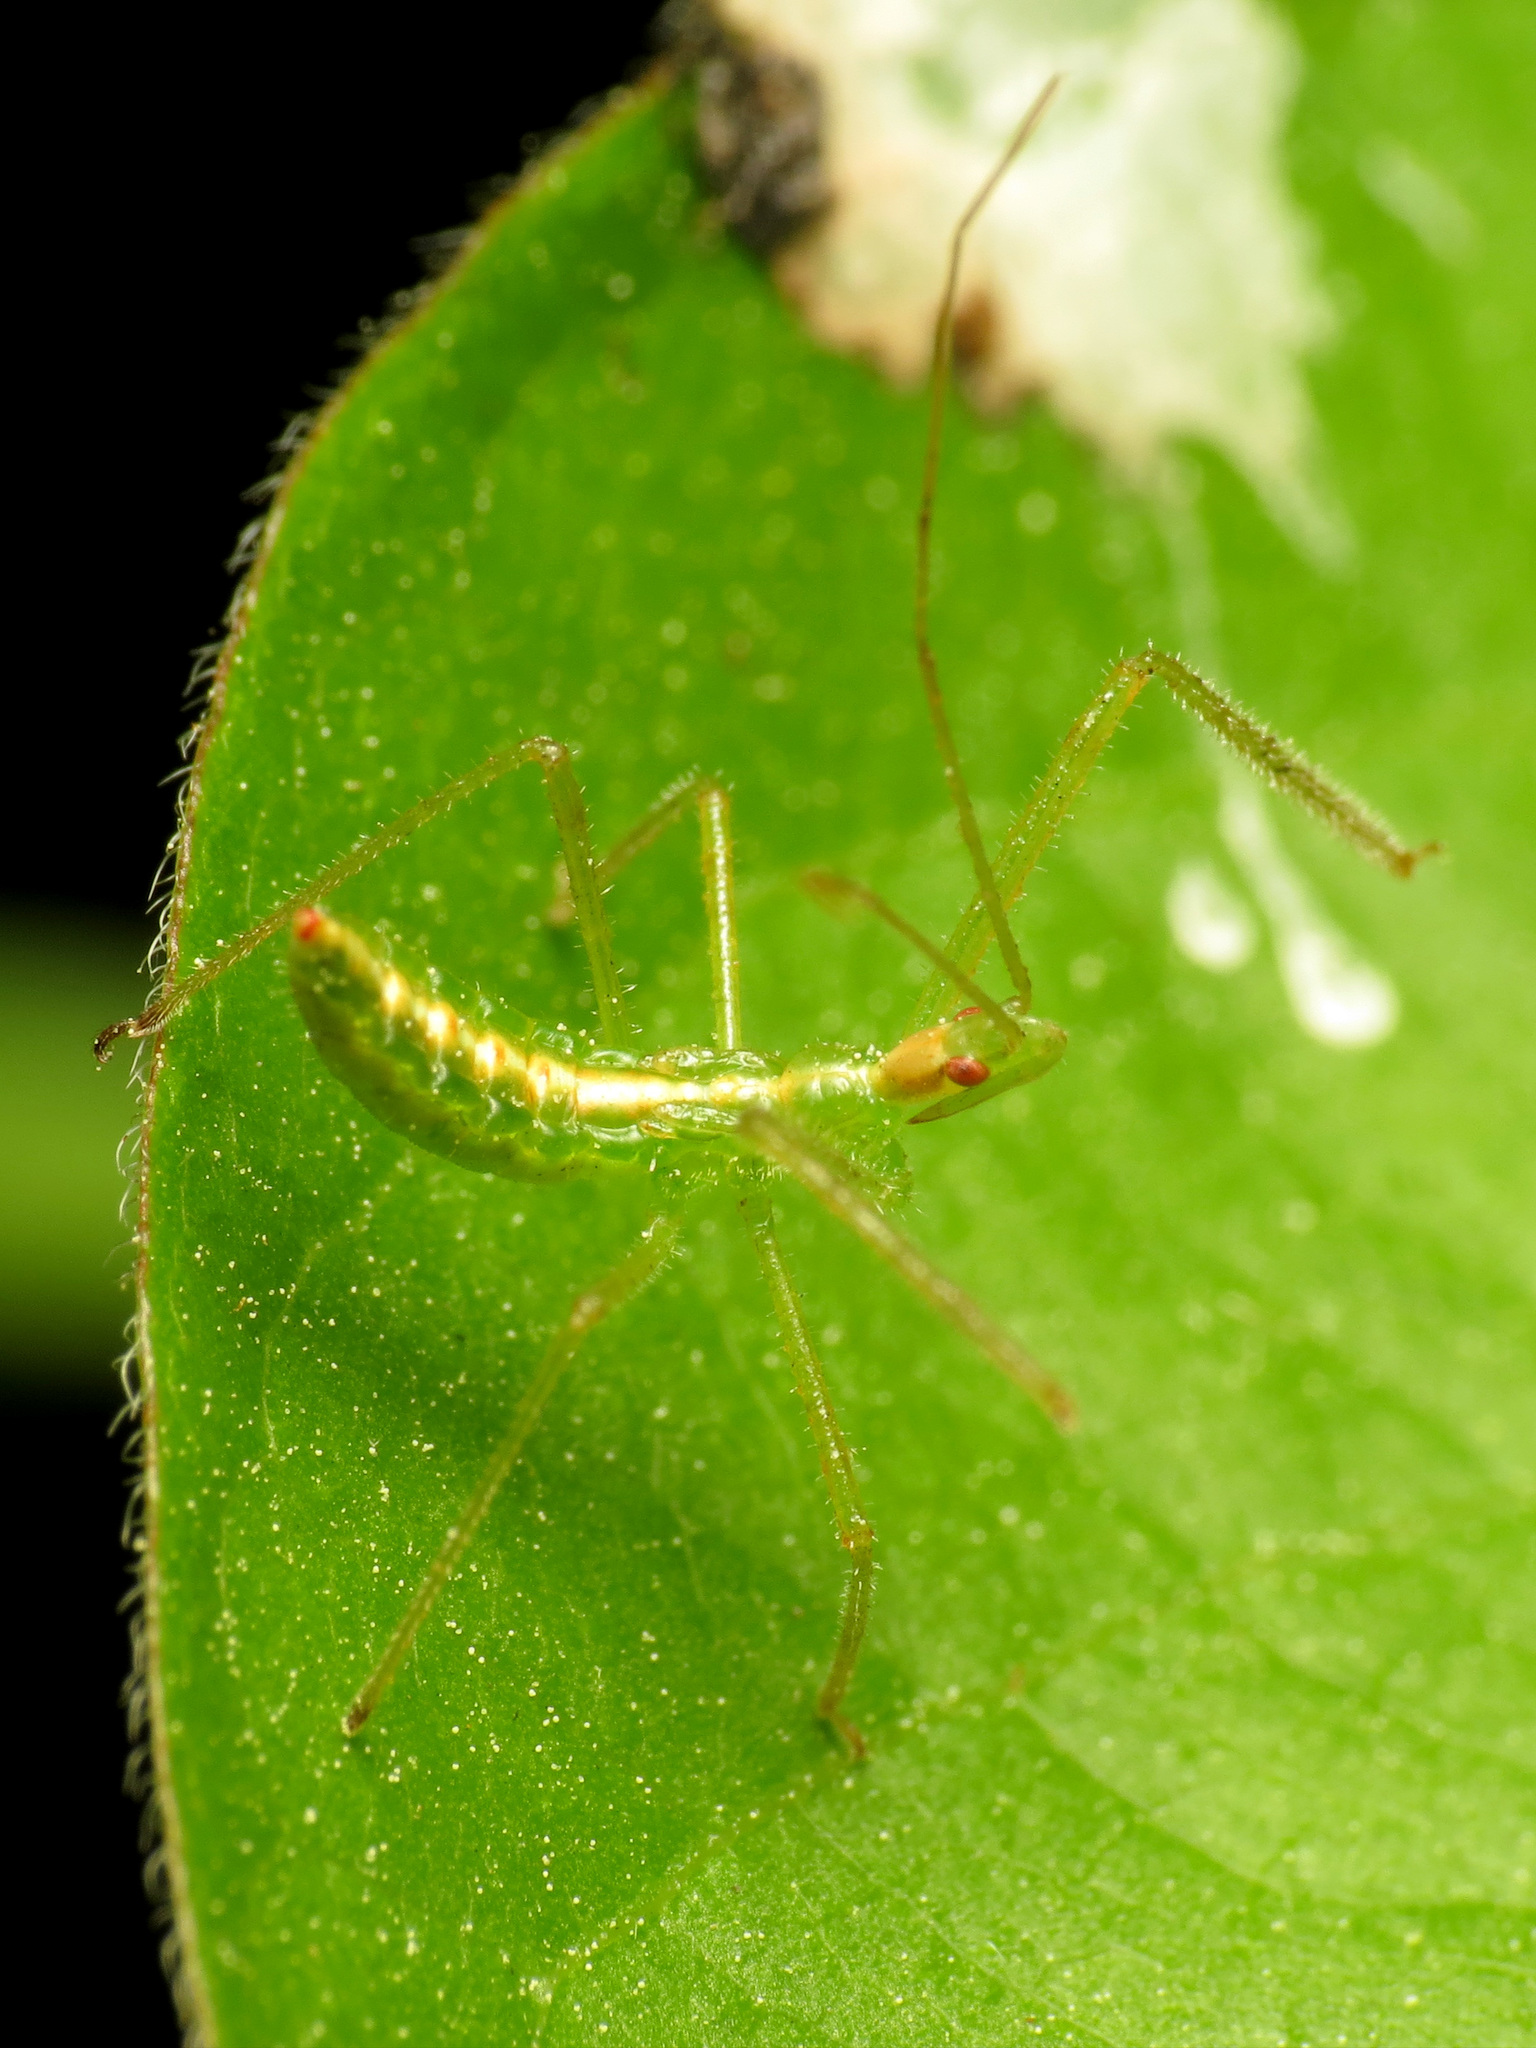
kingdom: Animalia
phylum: Arthropoda
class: Insecta
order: Hemiptera
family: Reduviidae
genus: Zelus
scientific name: Zelus luridus
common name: Pale green assassin bug
